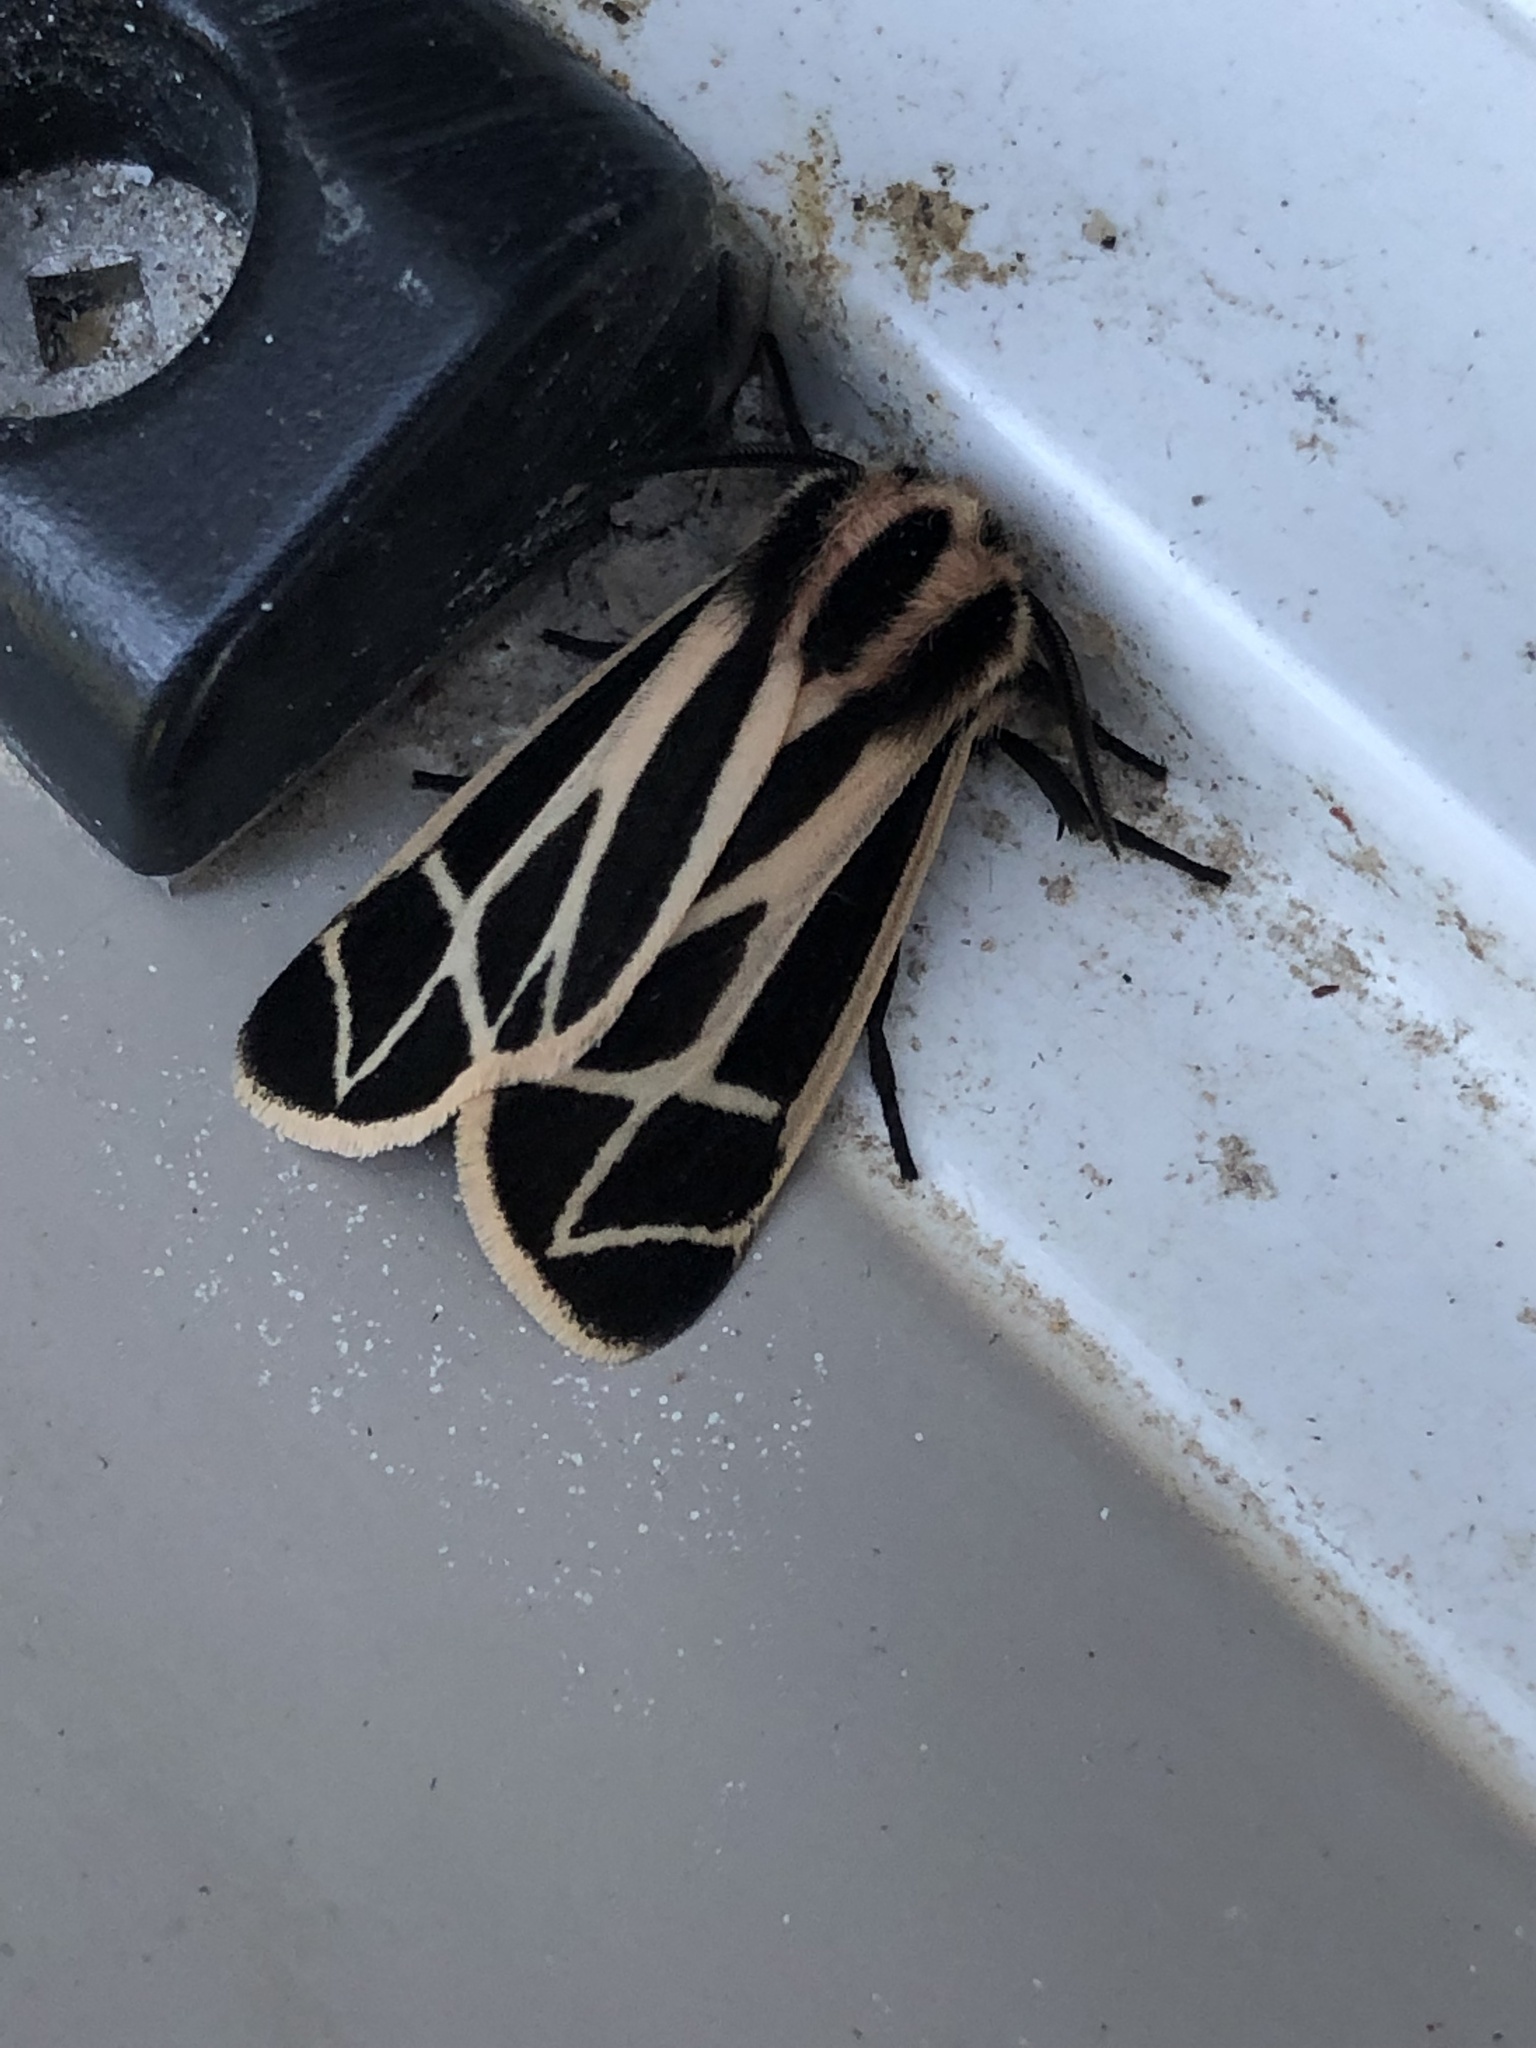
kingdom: Animalia
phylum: Arthropoda
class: Insecta
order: Lepidoptera
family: Erebidae
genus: Apantesis
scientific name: Apantesis phalerata
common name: Harnessed tiger moth
